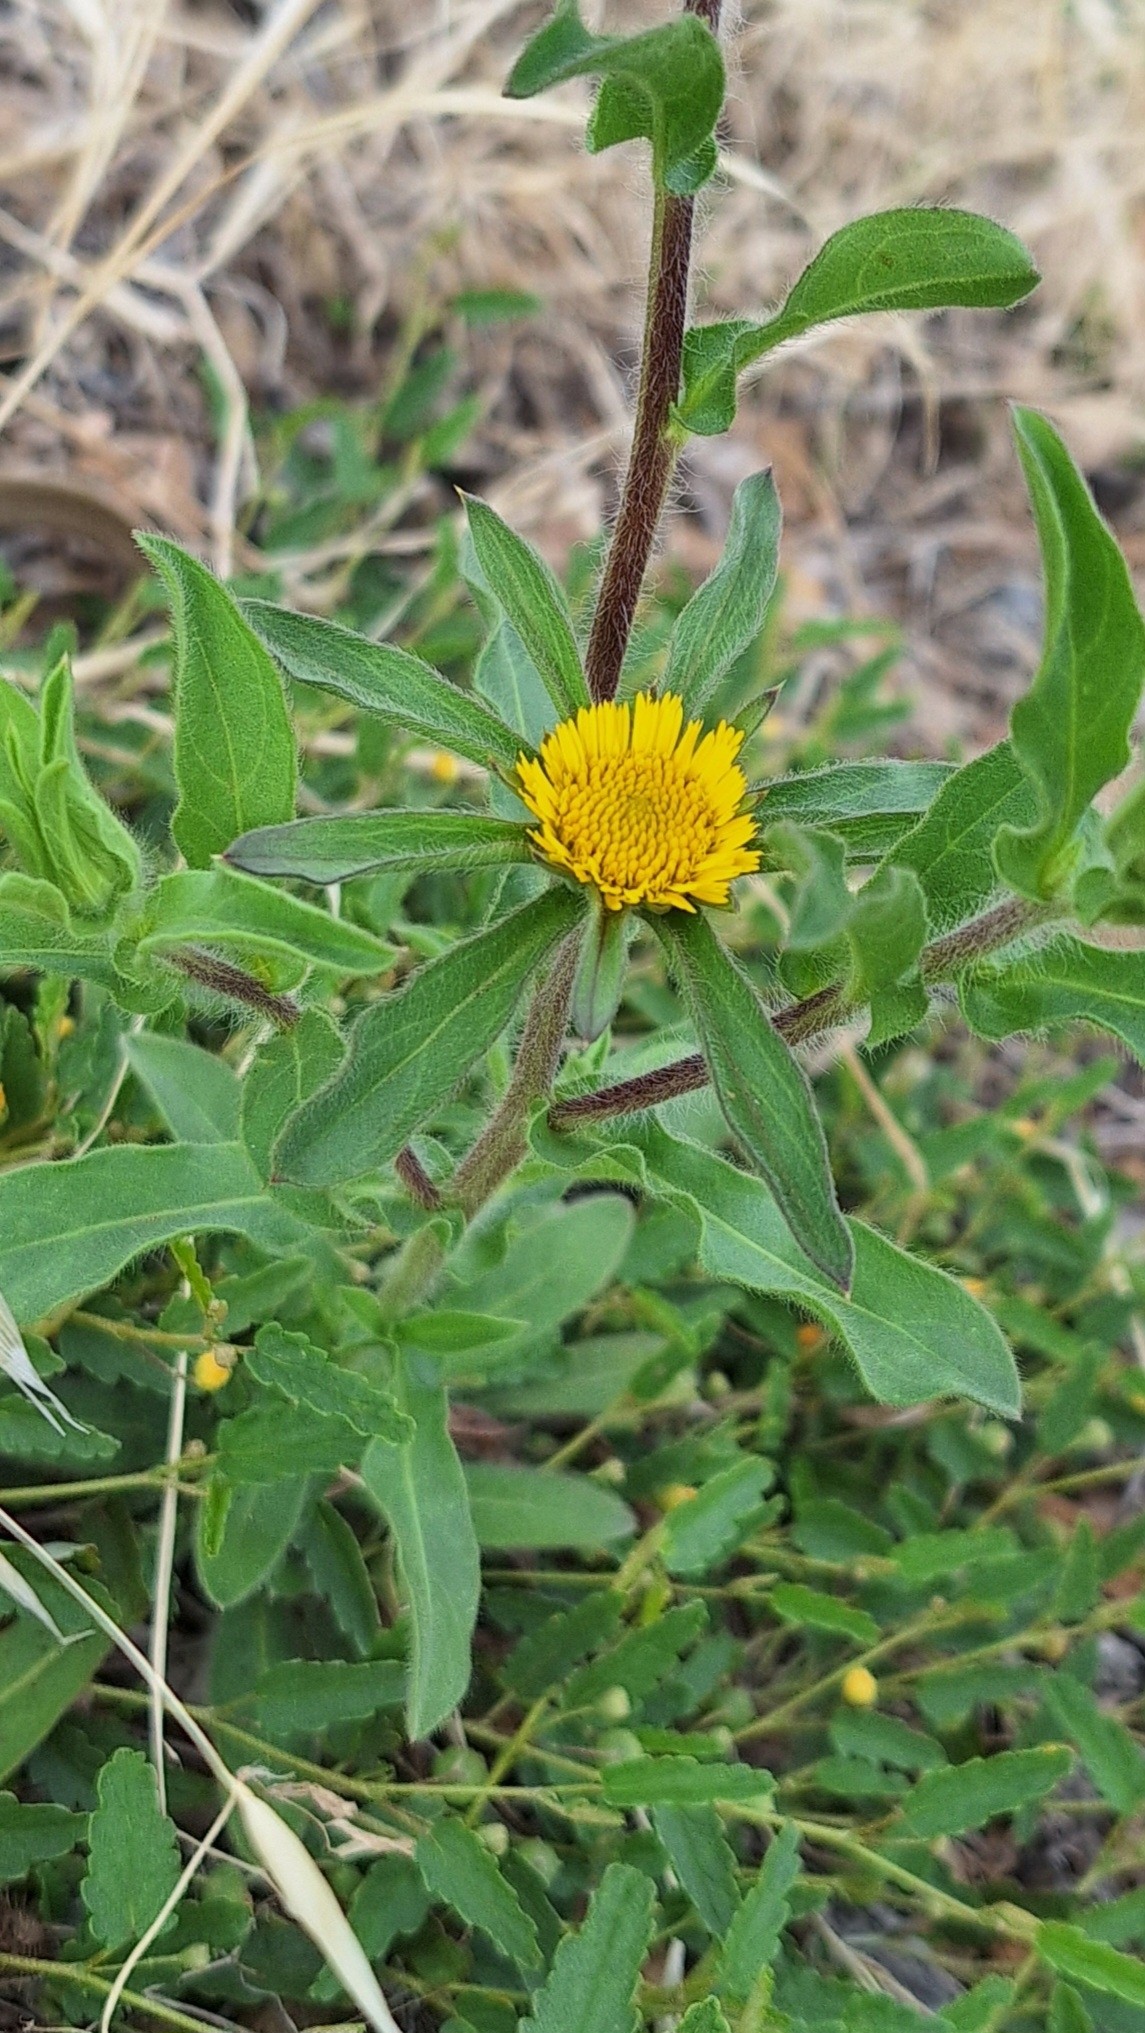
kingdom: Plantae
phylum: Tracheophyta
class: Magnoliopsida
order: Asterales
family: Asteraceae
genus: Pallenis
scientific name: Pallenis spinosa
